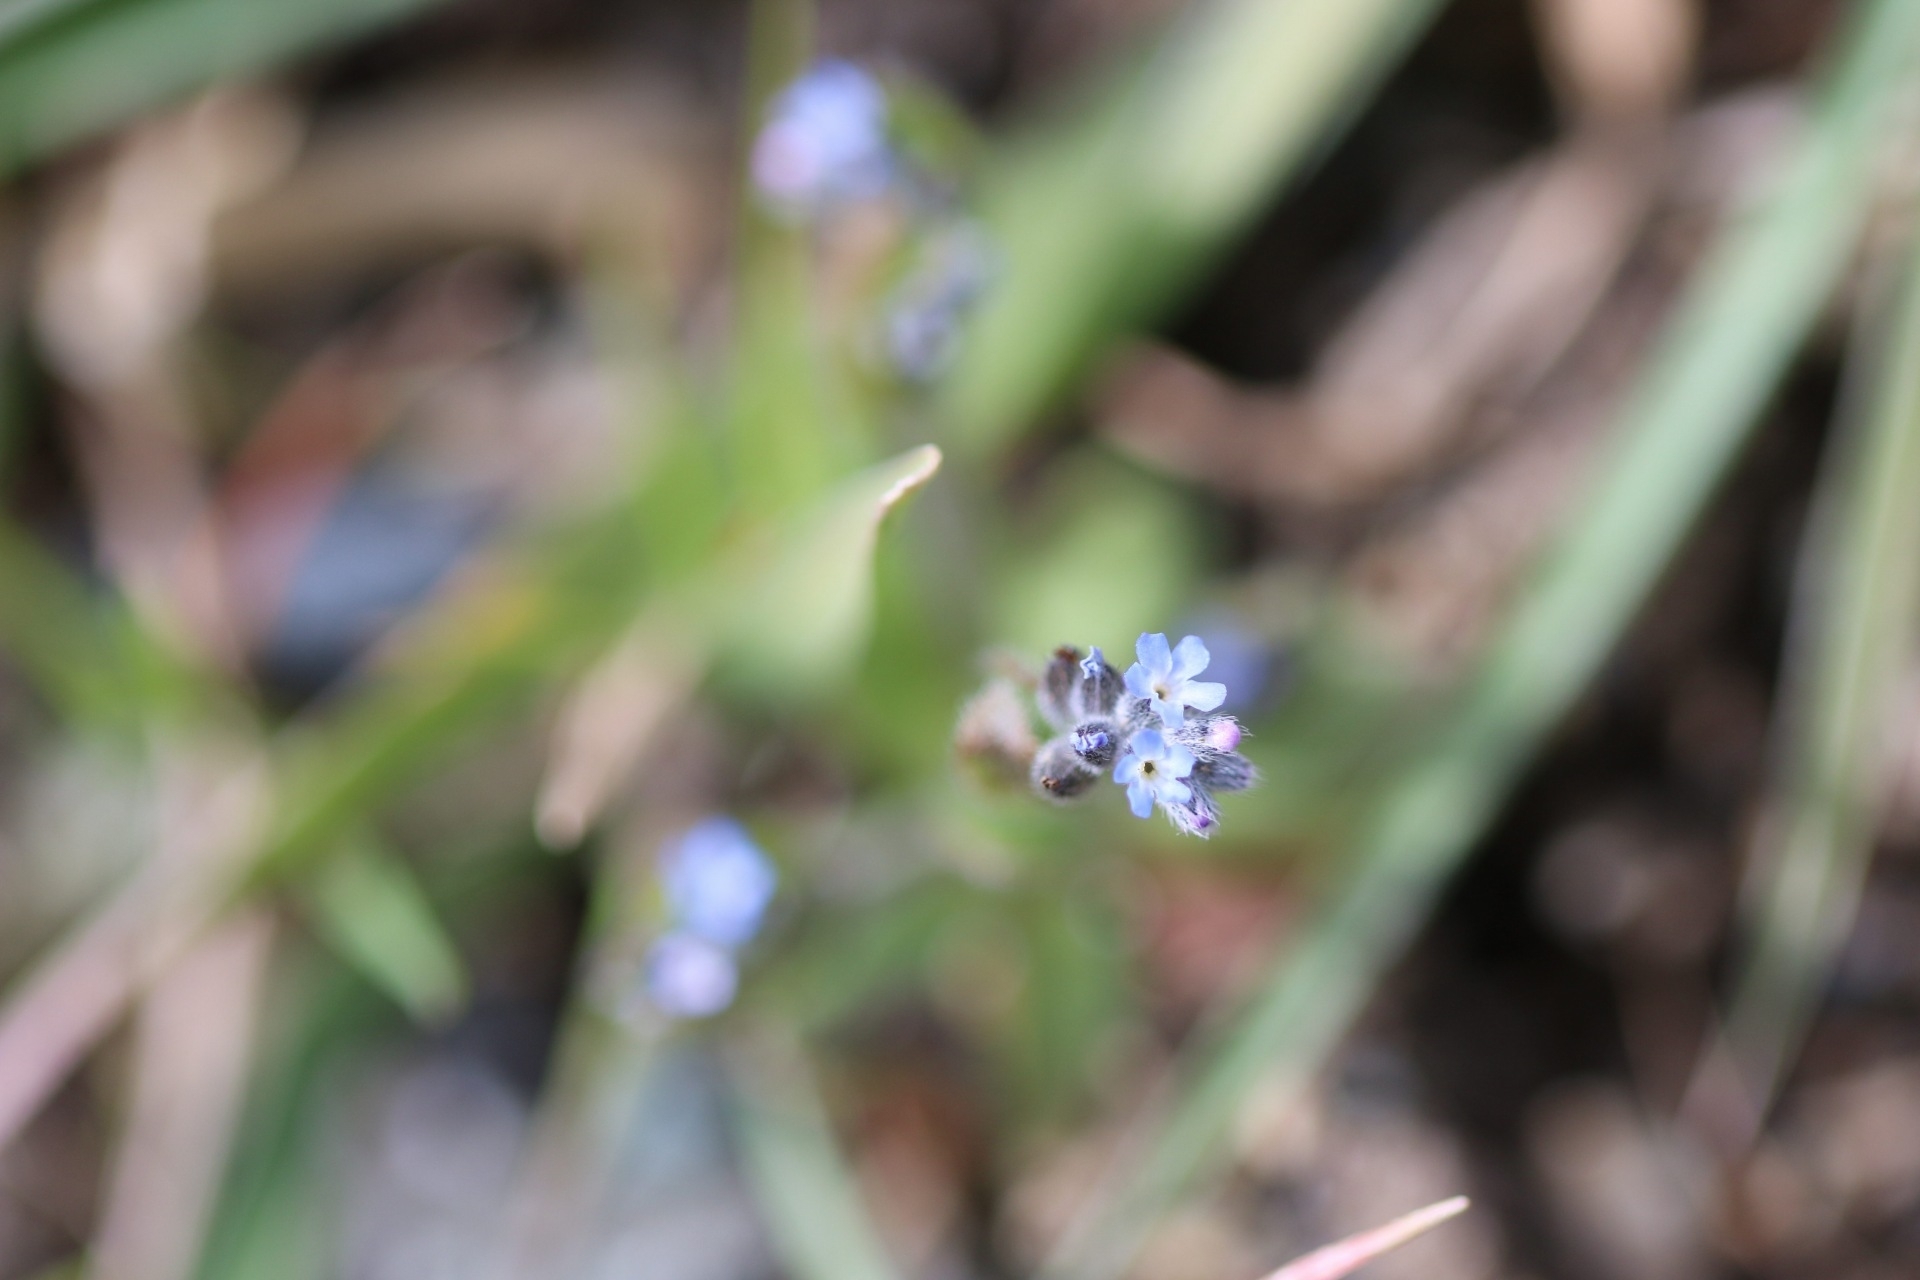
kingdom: Plantae
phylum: Tracheophyta
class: Magnoliopsida
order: Boraginales
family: Boraginaceae
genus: Myosotis
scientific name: Myosotis stricta
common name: Strict forget-me-not
